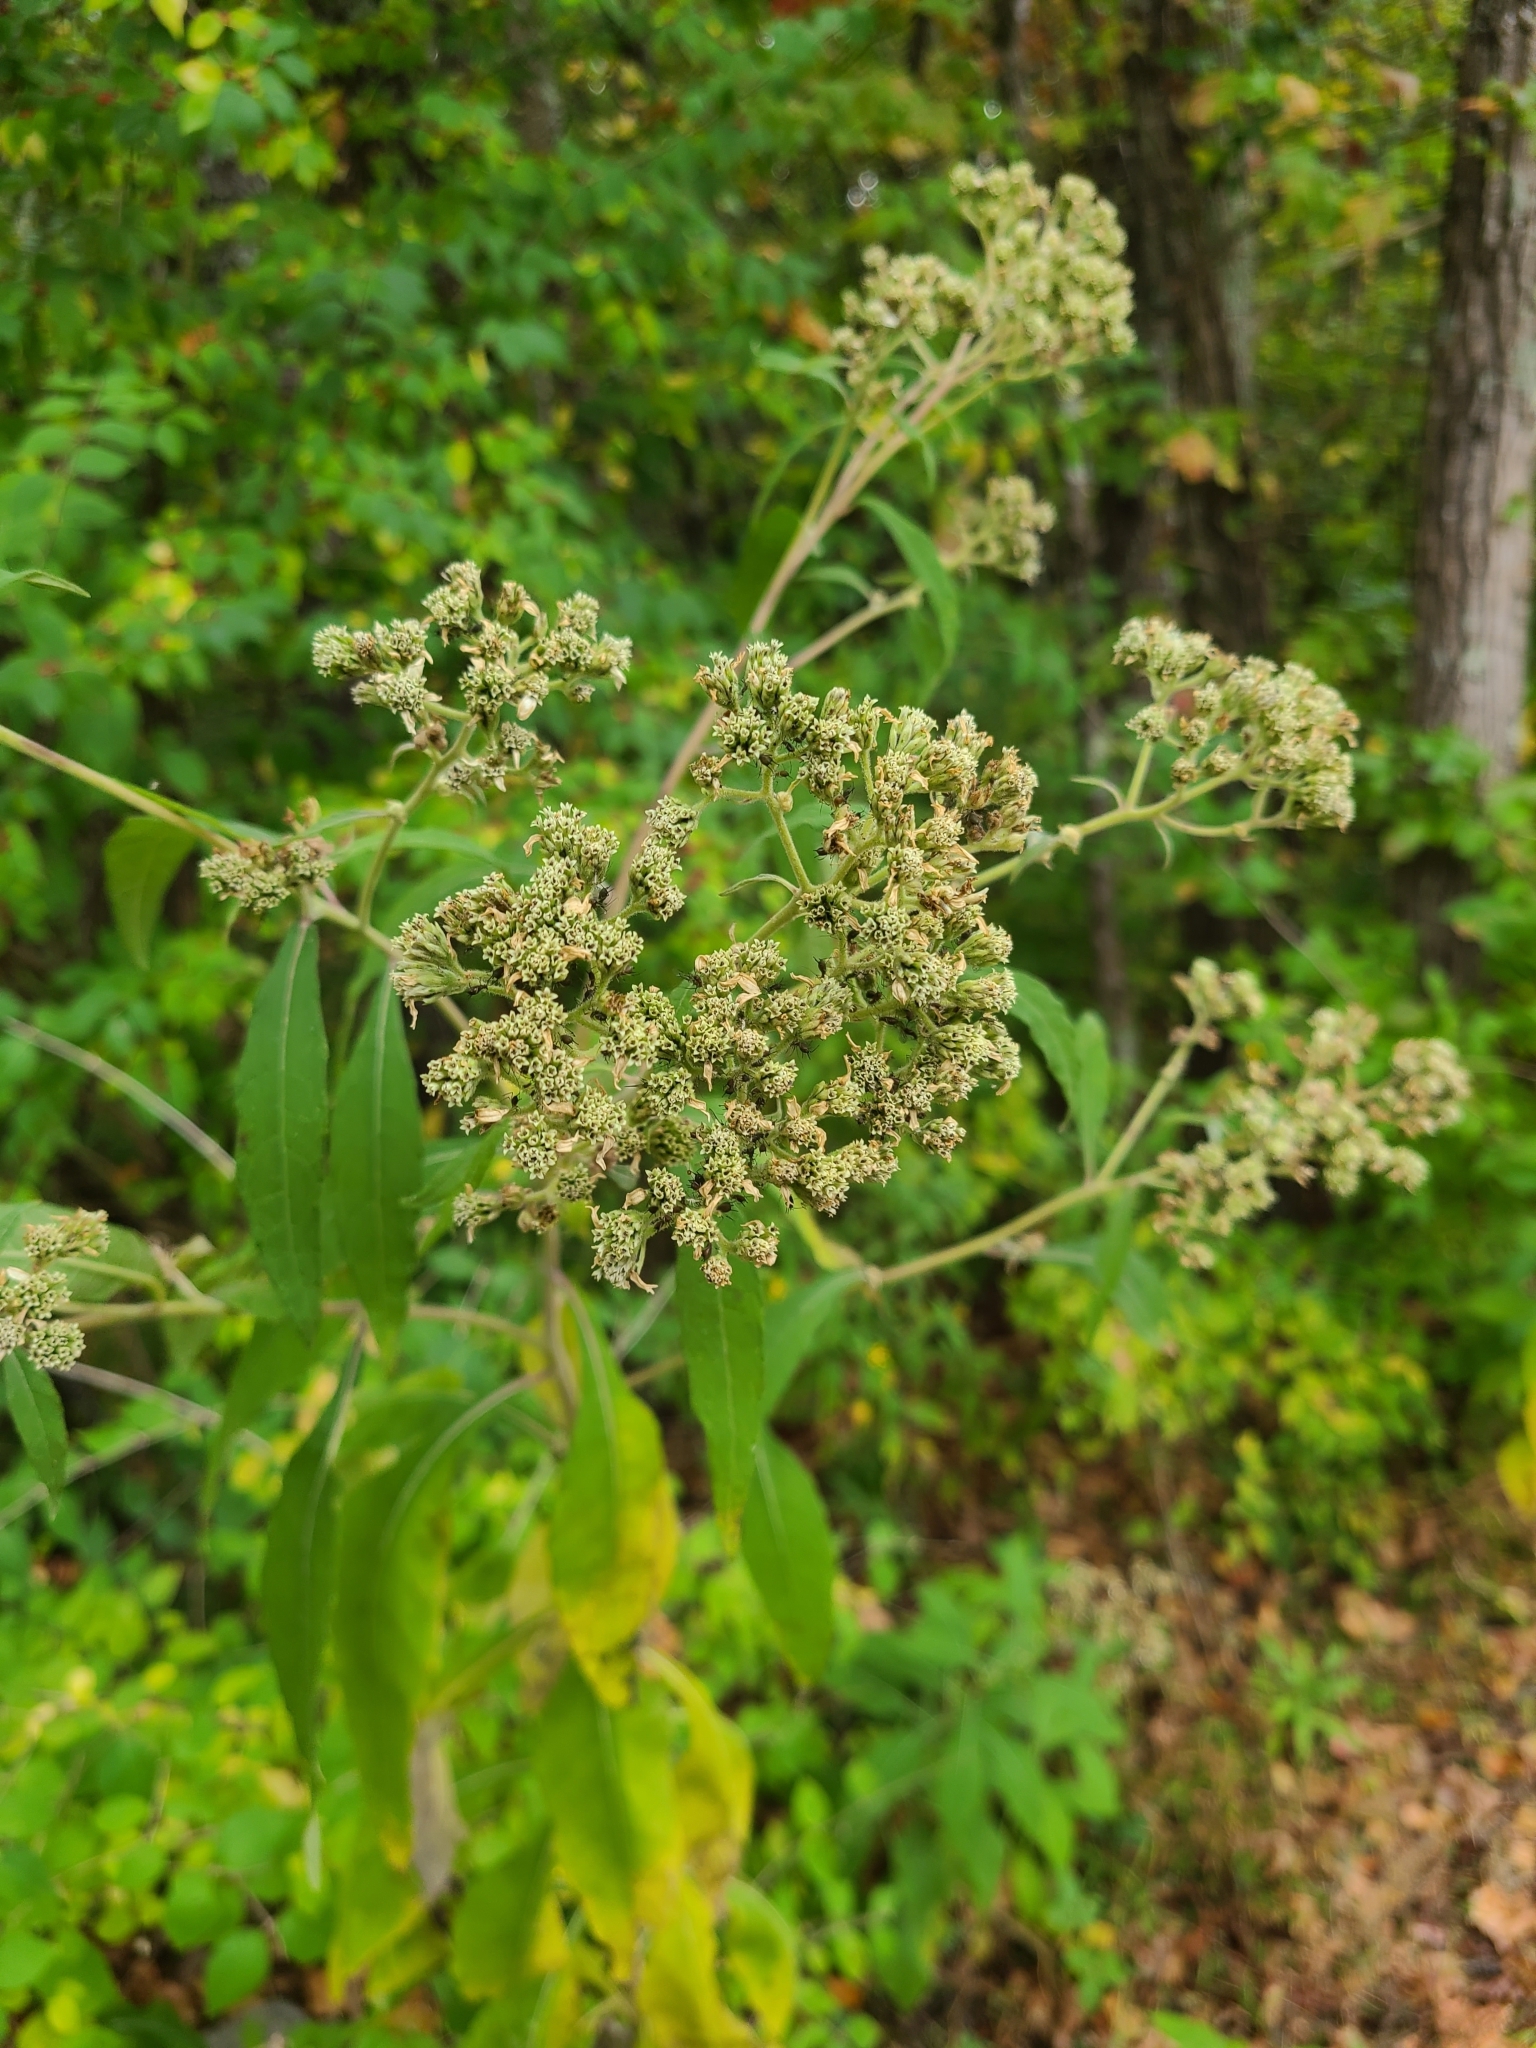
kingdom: Plantae
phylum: Tracheophyta
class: Magnoliopsida
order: Asterales
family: Asteraceae
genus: Verbesina
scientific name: Verbesina virginica
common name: Frostweed
